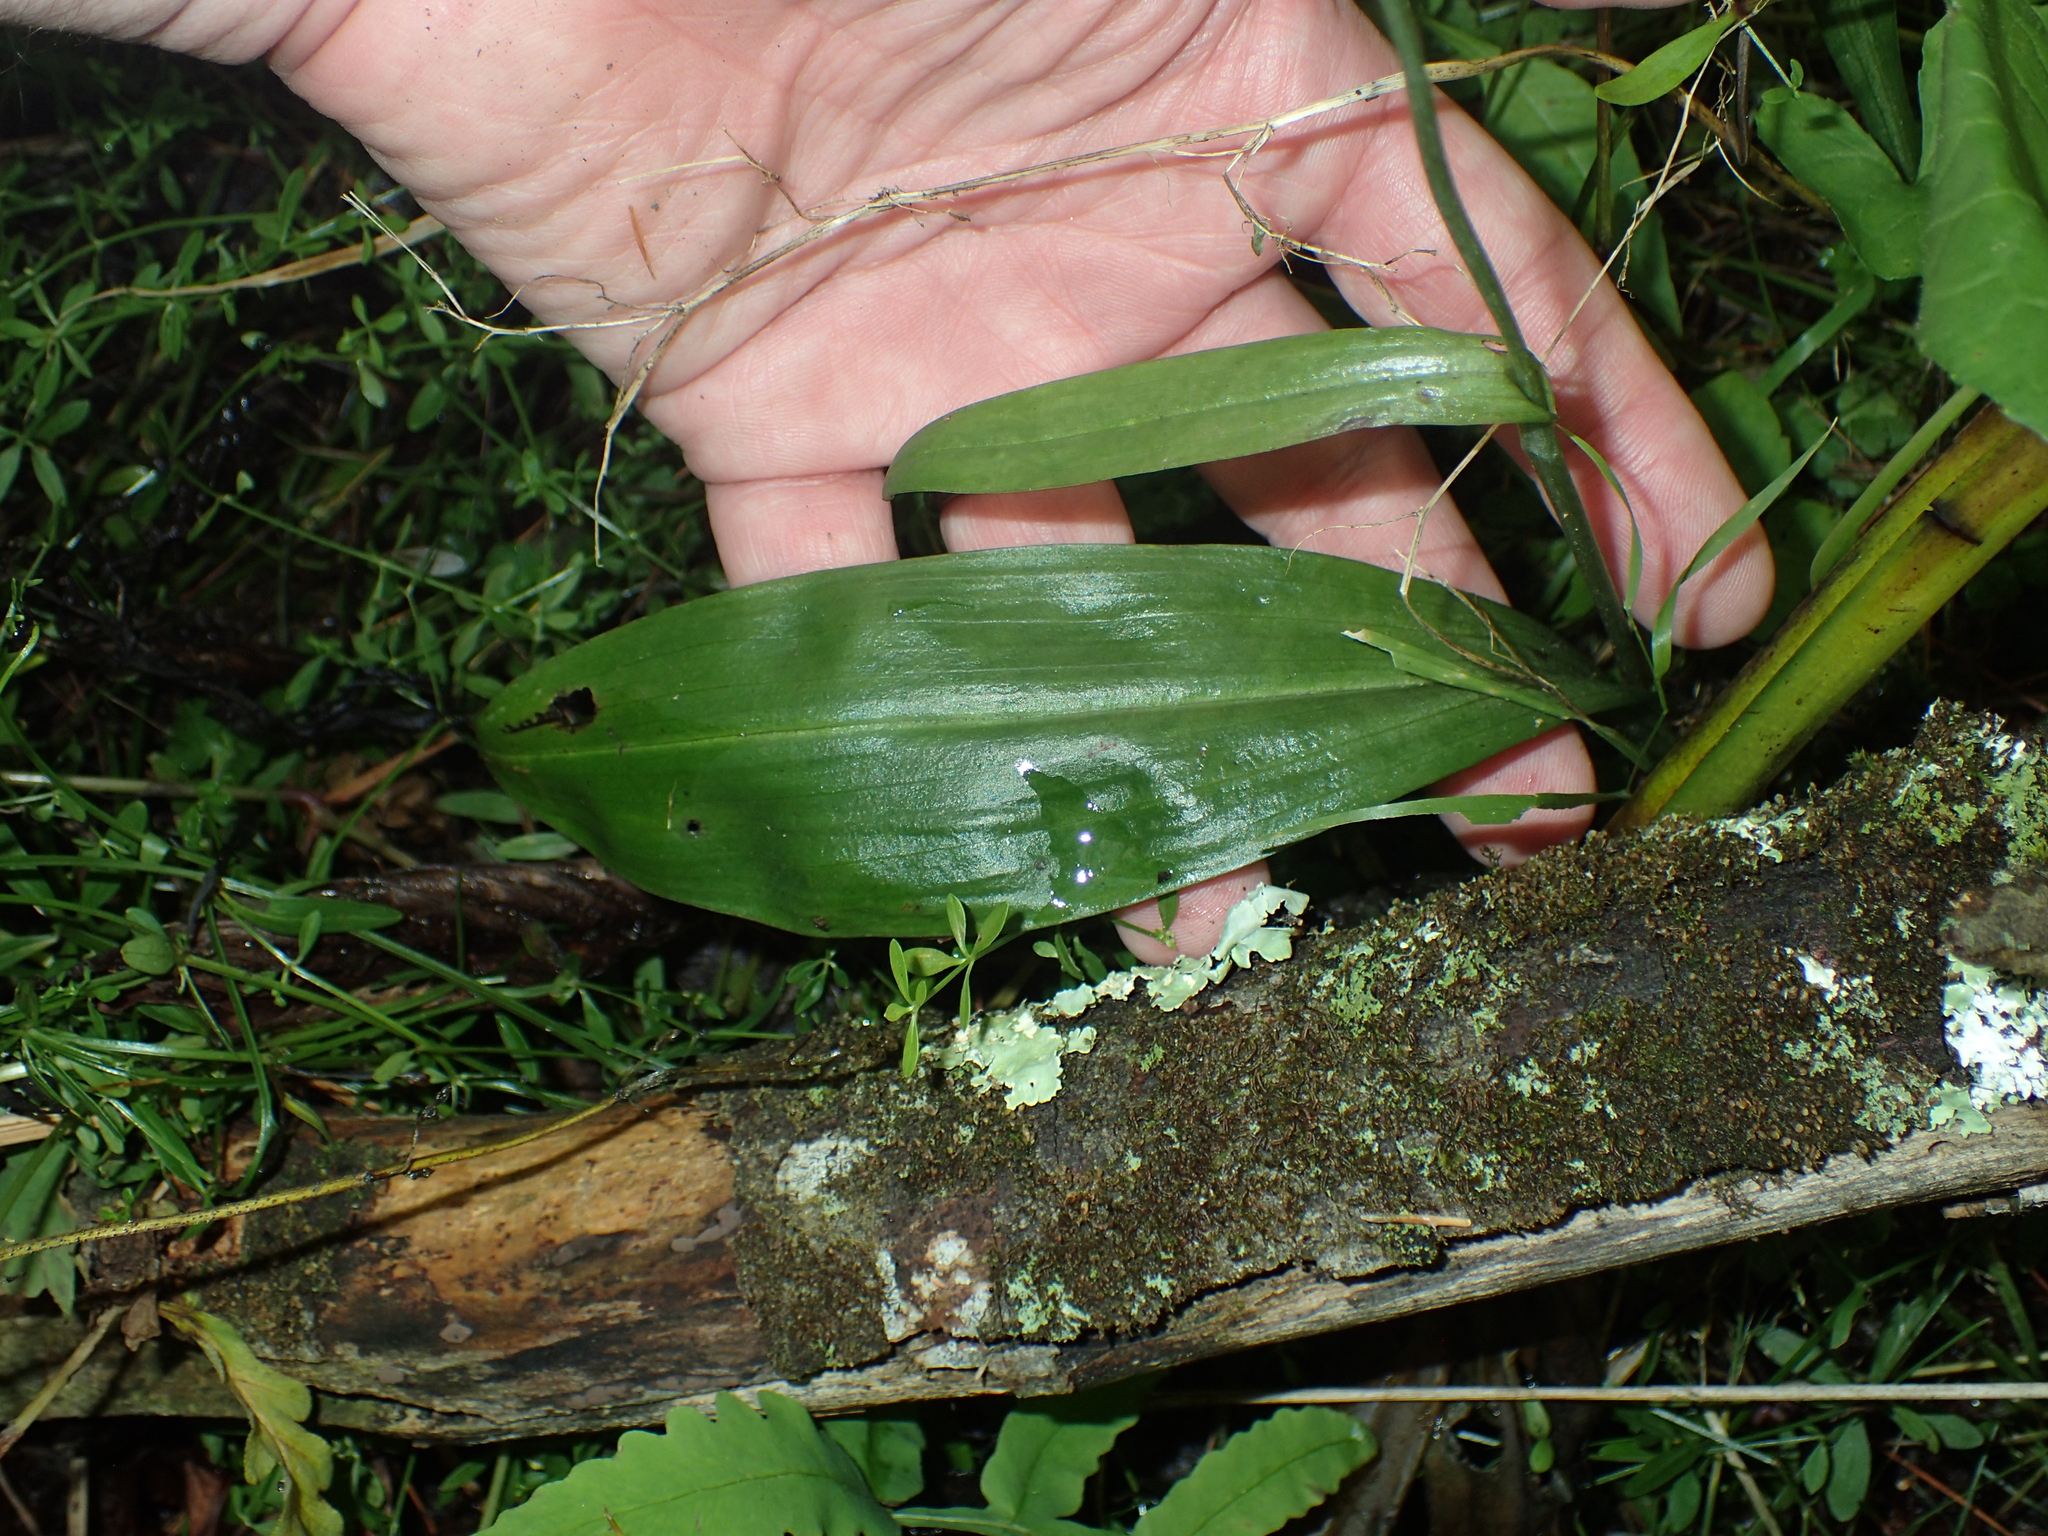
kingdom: Plantae
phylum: Tracheophyta
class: Liliopsida
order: Asparagales
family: Orchidaceae
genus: Platanthera
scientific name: Platanthera clavellata
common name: Club-spur orchid
